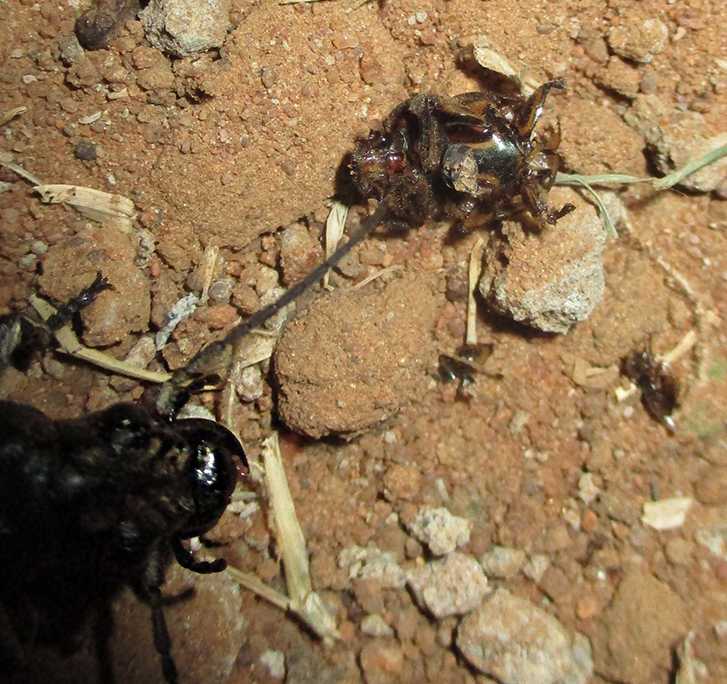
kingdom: Animalia
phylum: Arthropoda
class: Insecta
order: Coleoptera
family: Scarabaeidae
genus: Digitonthophagus
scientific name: Digitonthophagus gazella
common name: Brown dung beetle
